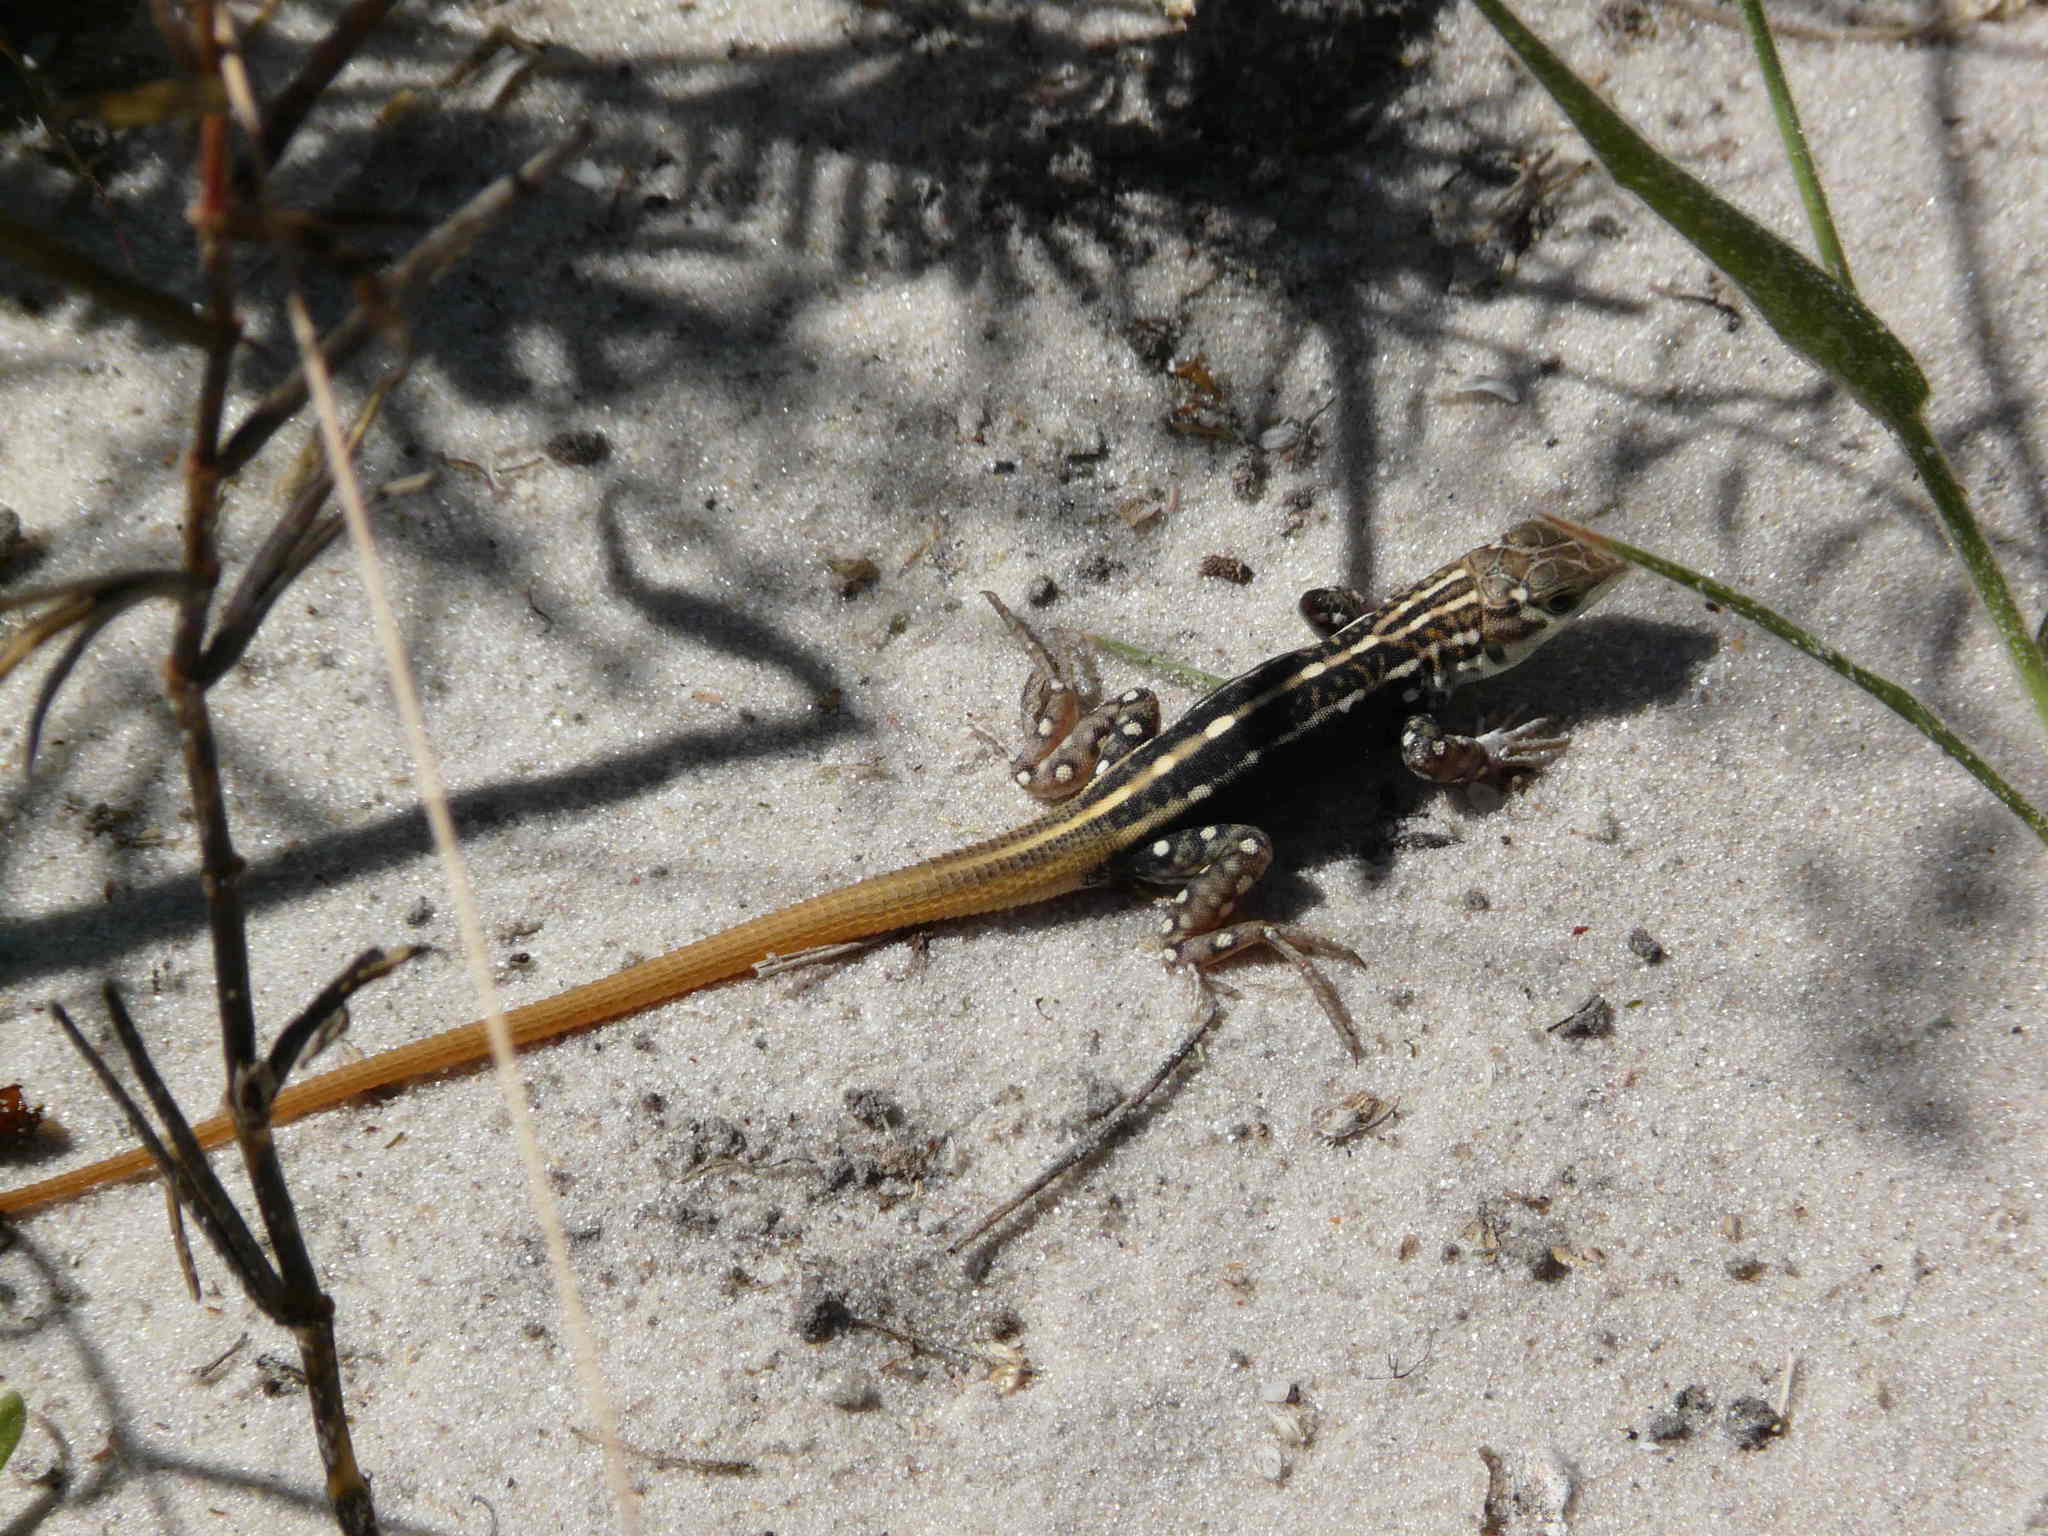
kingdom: Animalia
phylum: Chordata
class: Squamata
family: Lacertidae
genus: Heliobolus
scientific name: Heliobolus lugubris
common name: Bushveld lizard
